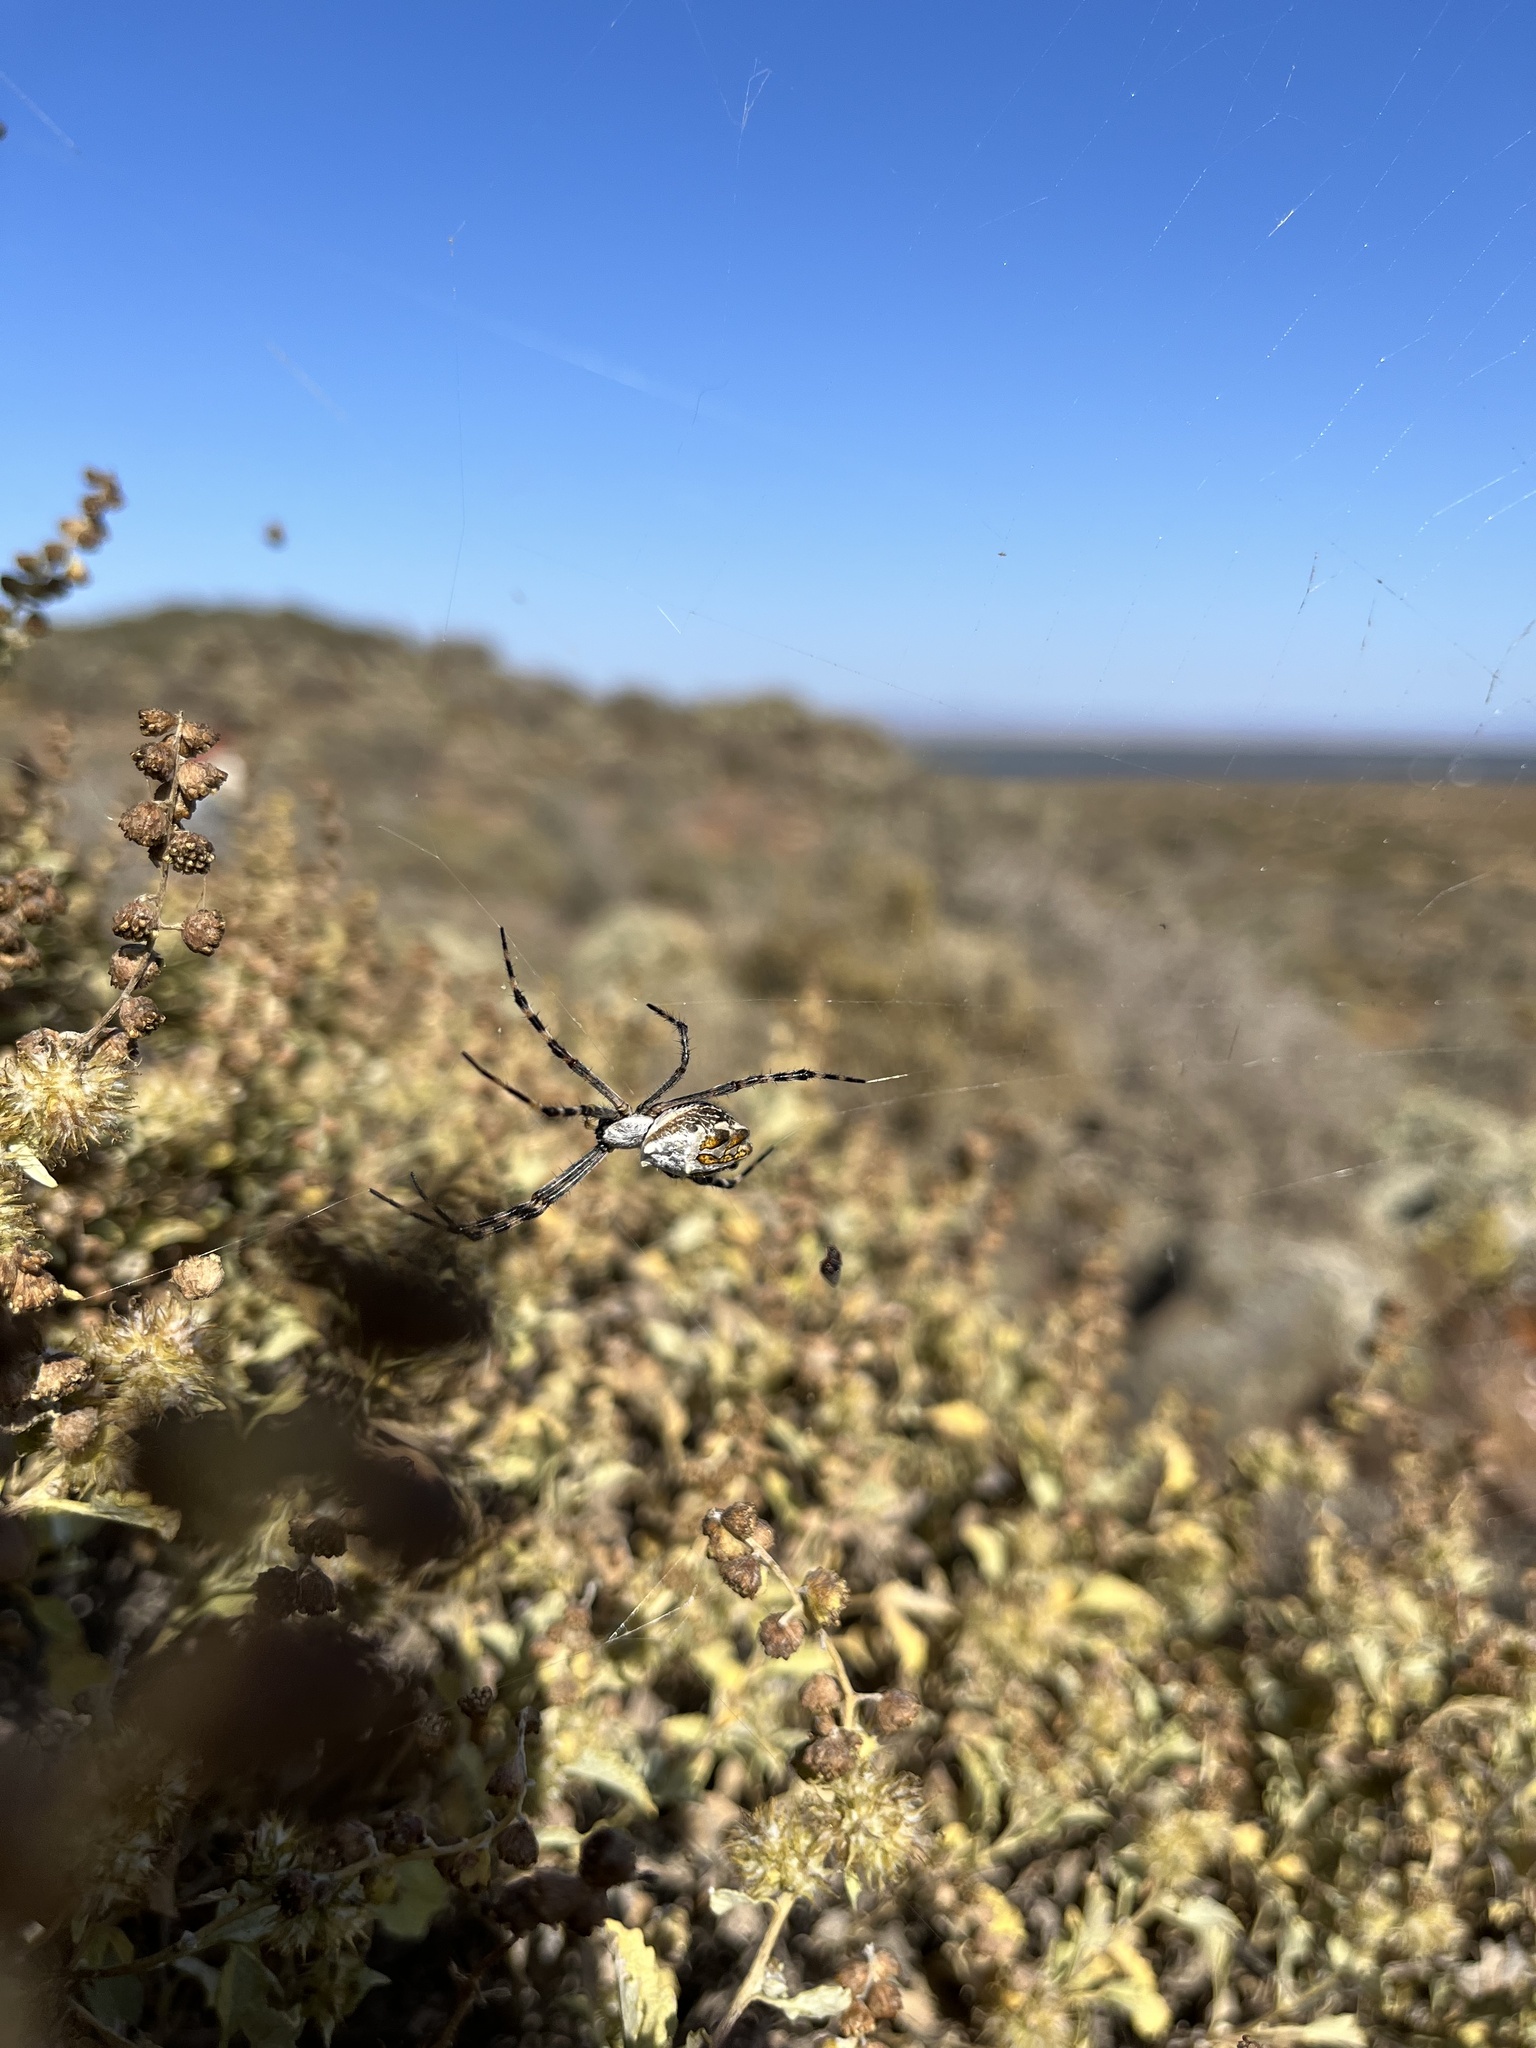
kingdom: Animalia
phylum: Arthropoda
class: Arachnida
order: Araneae
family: Araneidae
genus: Argiope
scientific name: Argiope argentata
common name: Orb weavers
